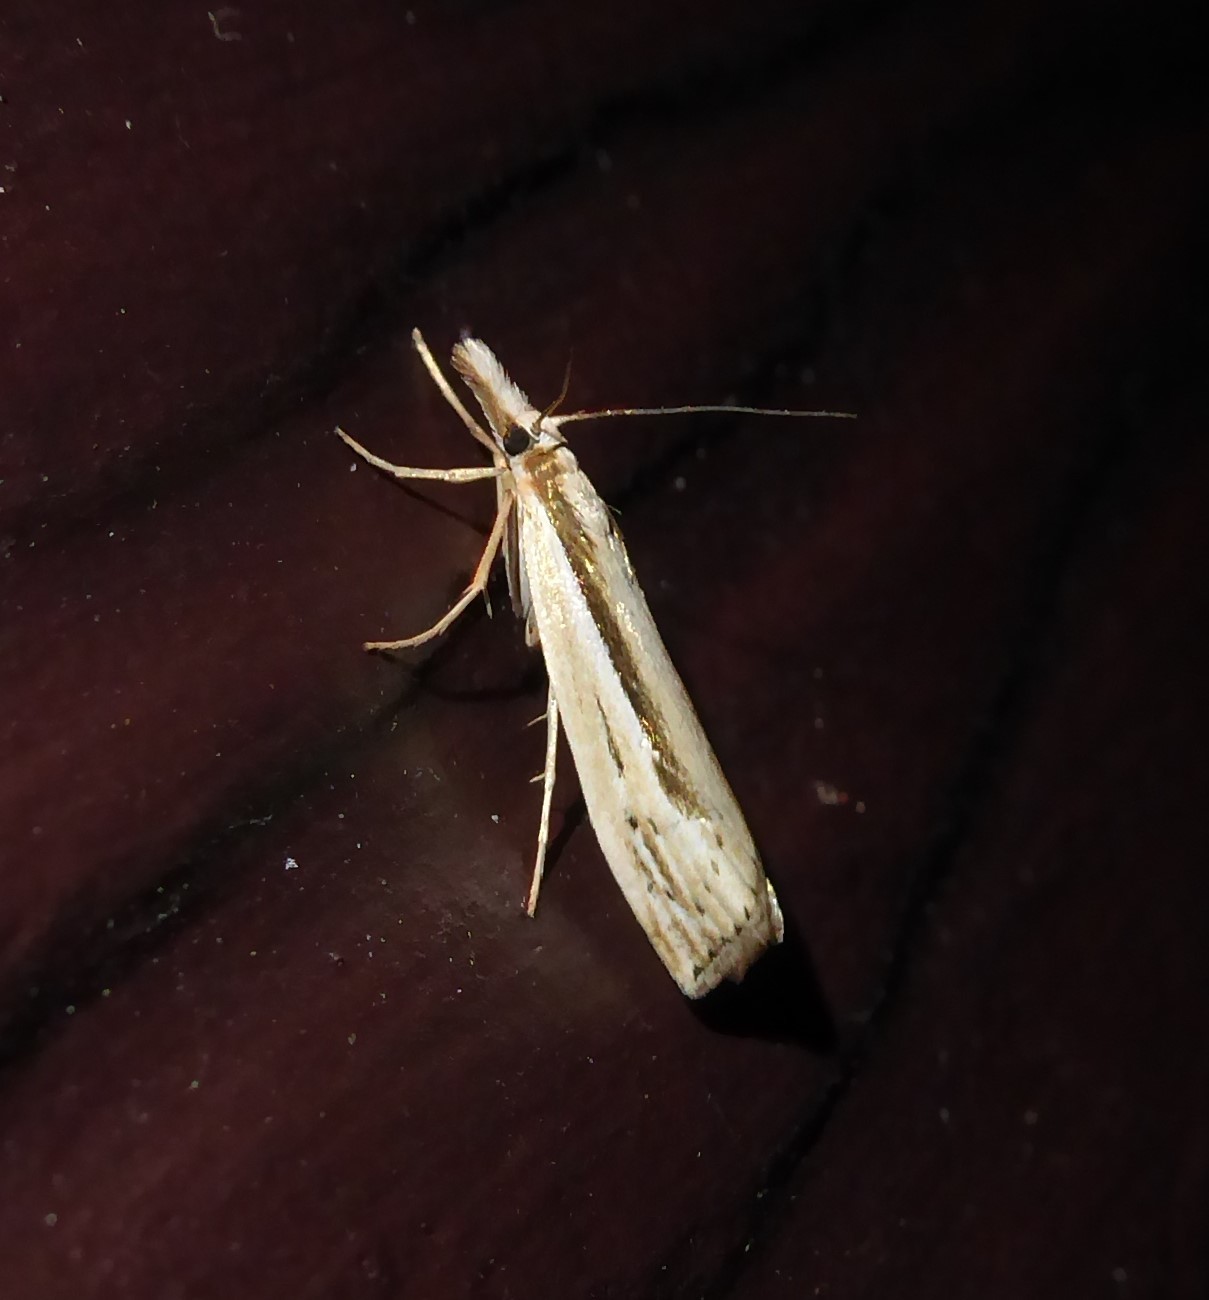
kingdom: Animalia
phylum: Arthropoda
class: Insecta
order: Lepidoptera
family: Crambidae
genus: Orocrambus
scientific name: Orocrambus ramosellus
